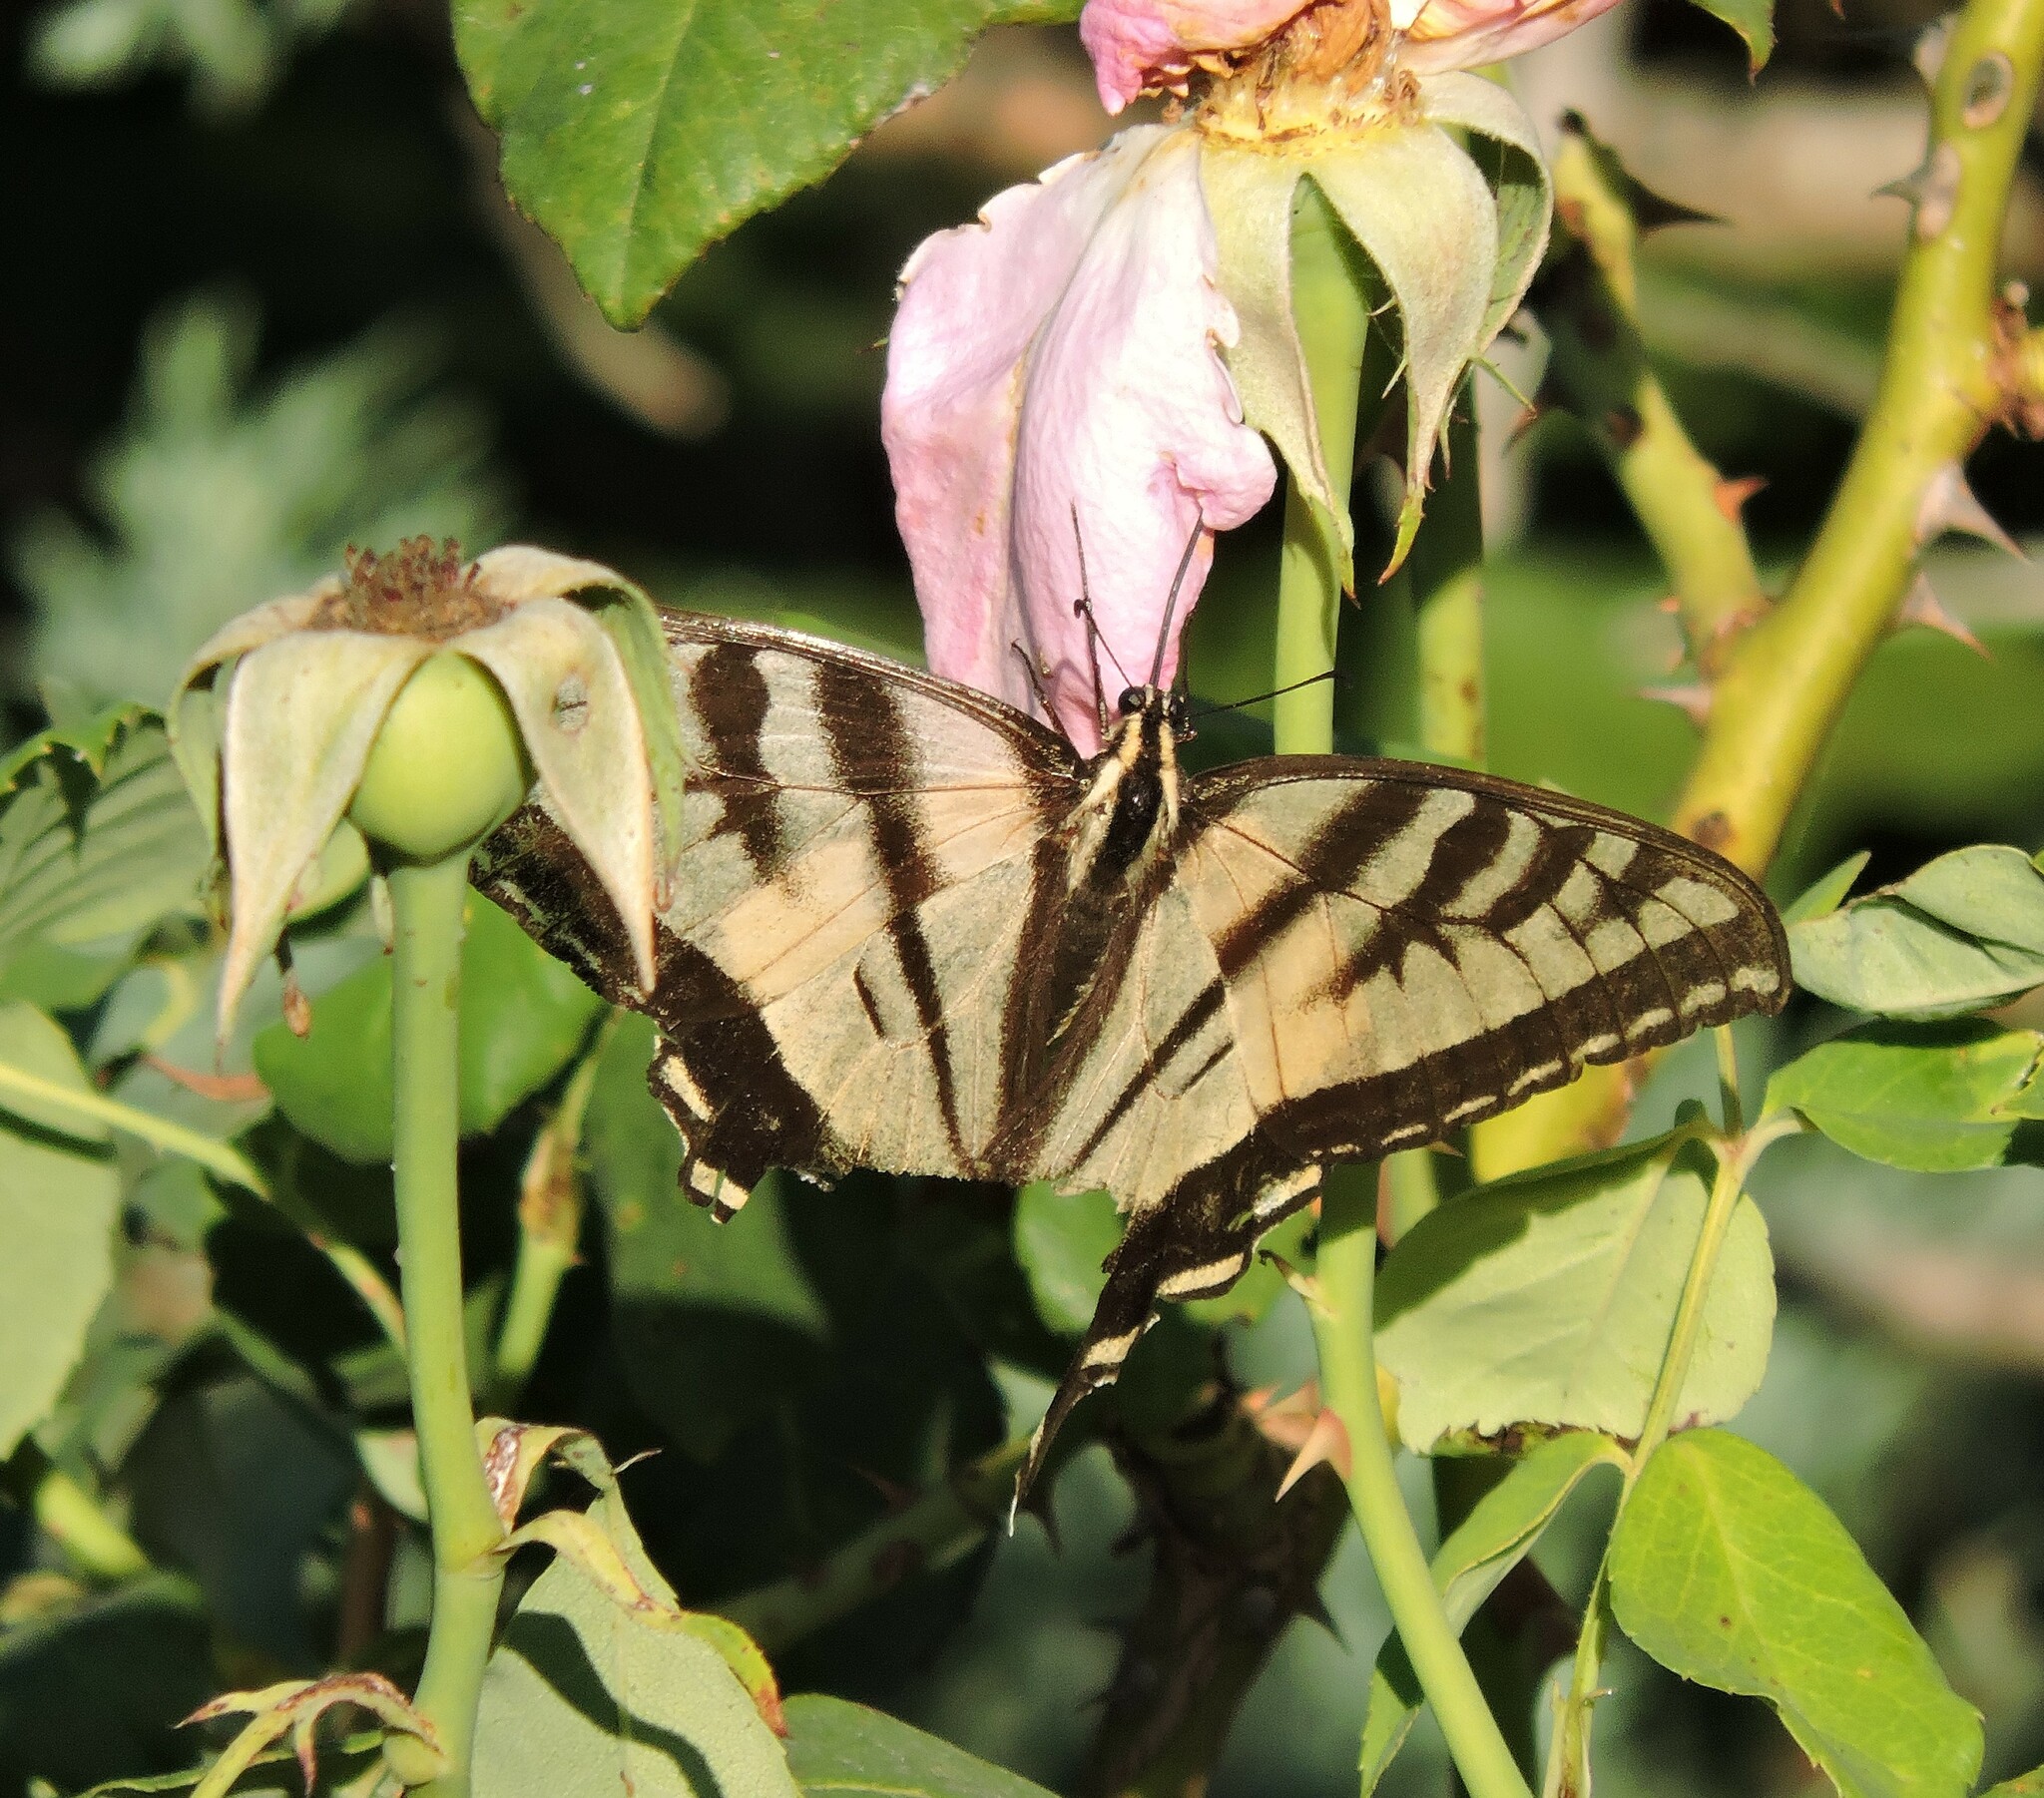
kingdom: Animalia
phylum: Arthropoda
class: Insecta
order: Lepidoptera
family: Papilionidae
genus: Papilio
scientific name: Papilio rutulus
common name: Western tiger swallowtail
